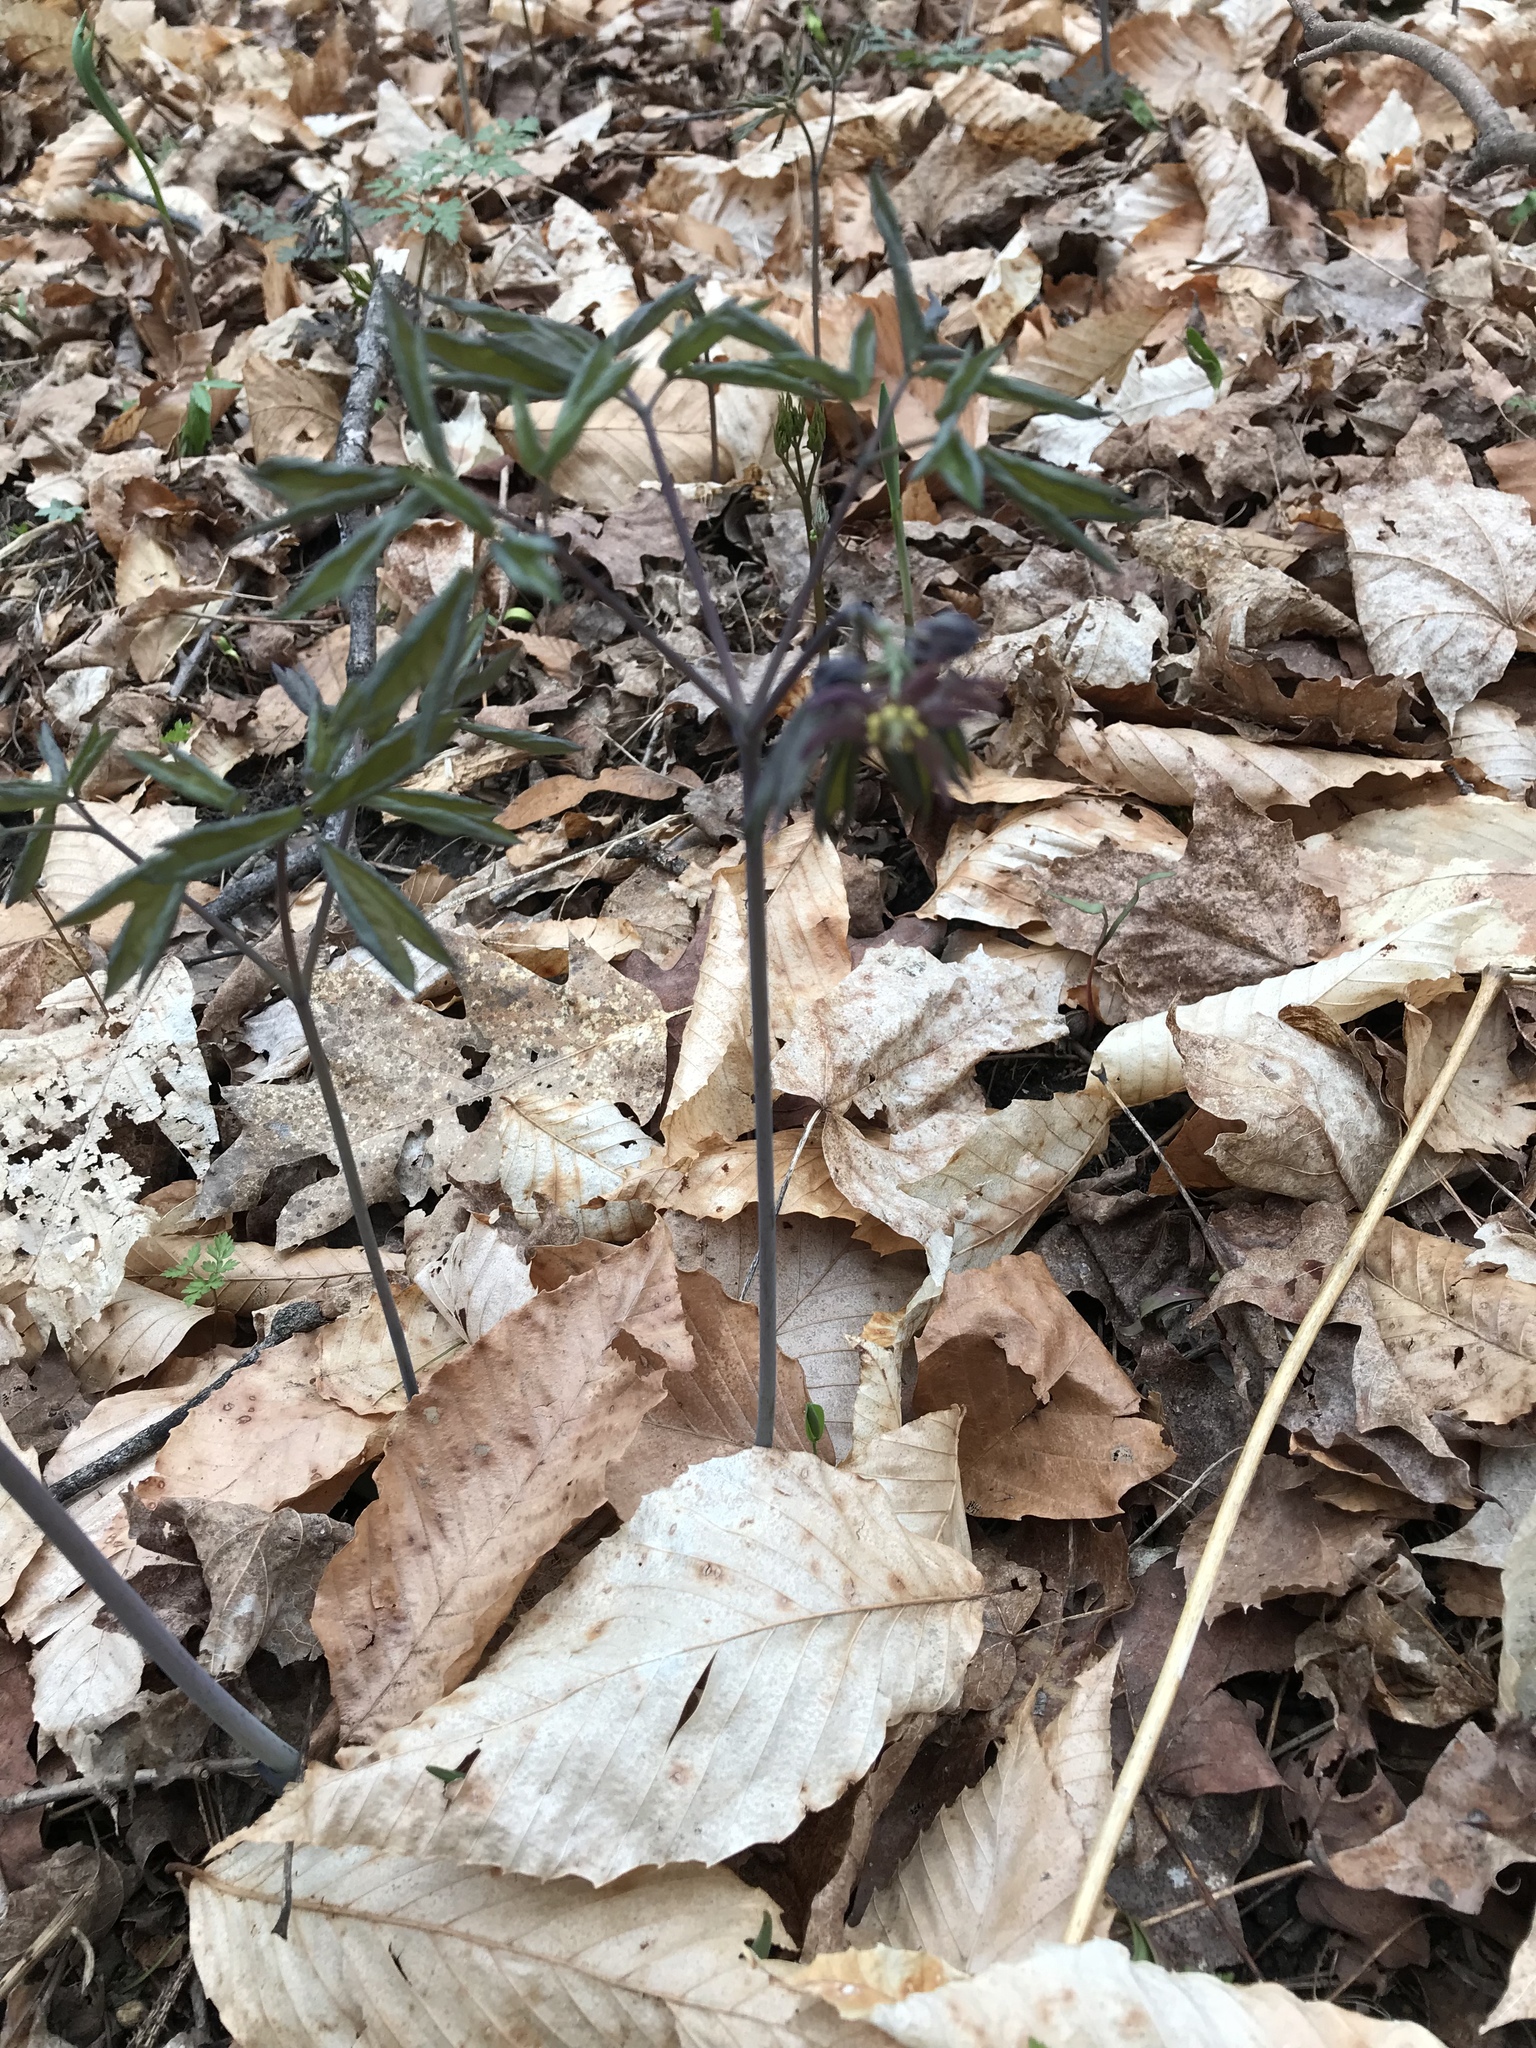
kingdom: Plantae
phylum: Tracheophyta
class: Magnoliopsida
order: Ranunculales
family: Berberidaceae
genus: Caulophyllum
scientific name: Caulophyllum giganteum
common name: Blue cohosh
